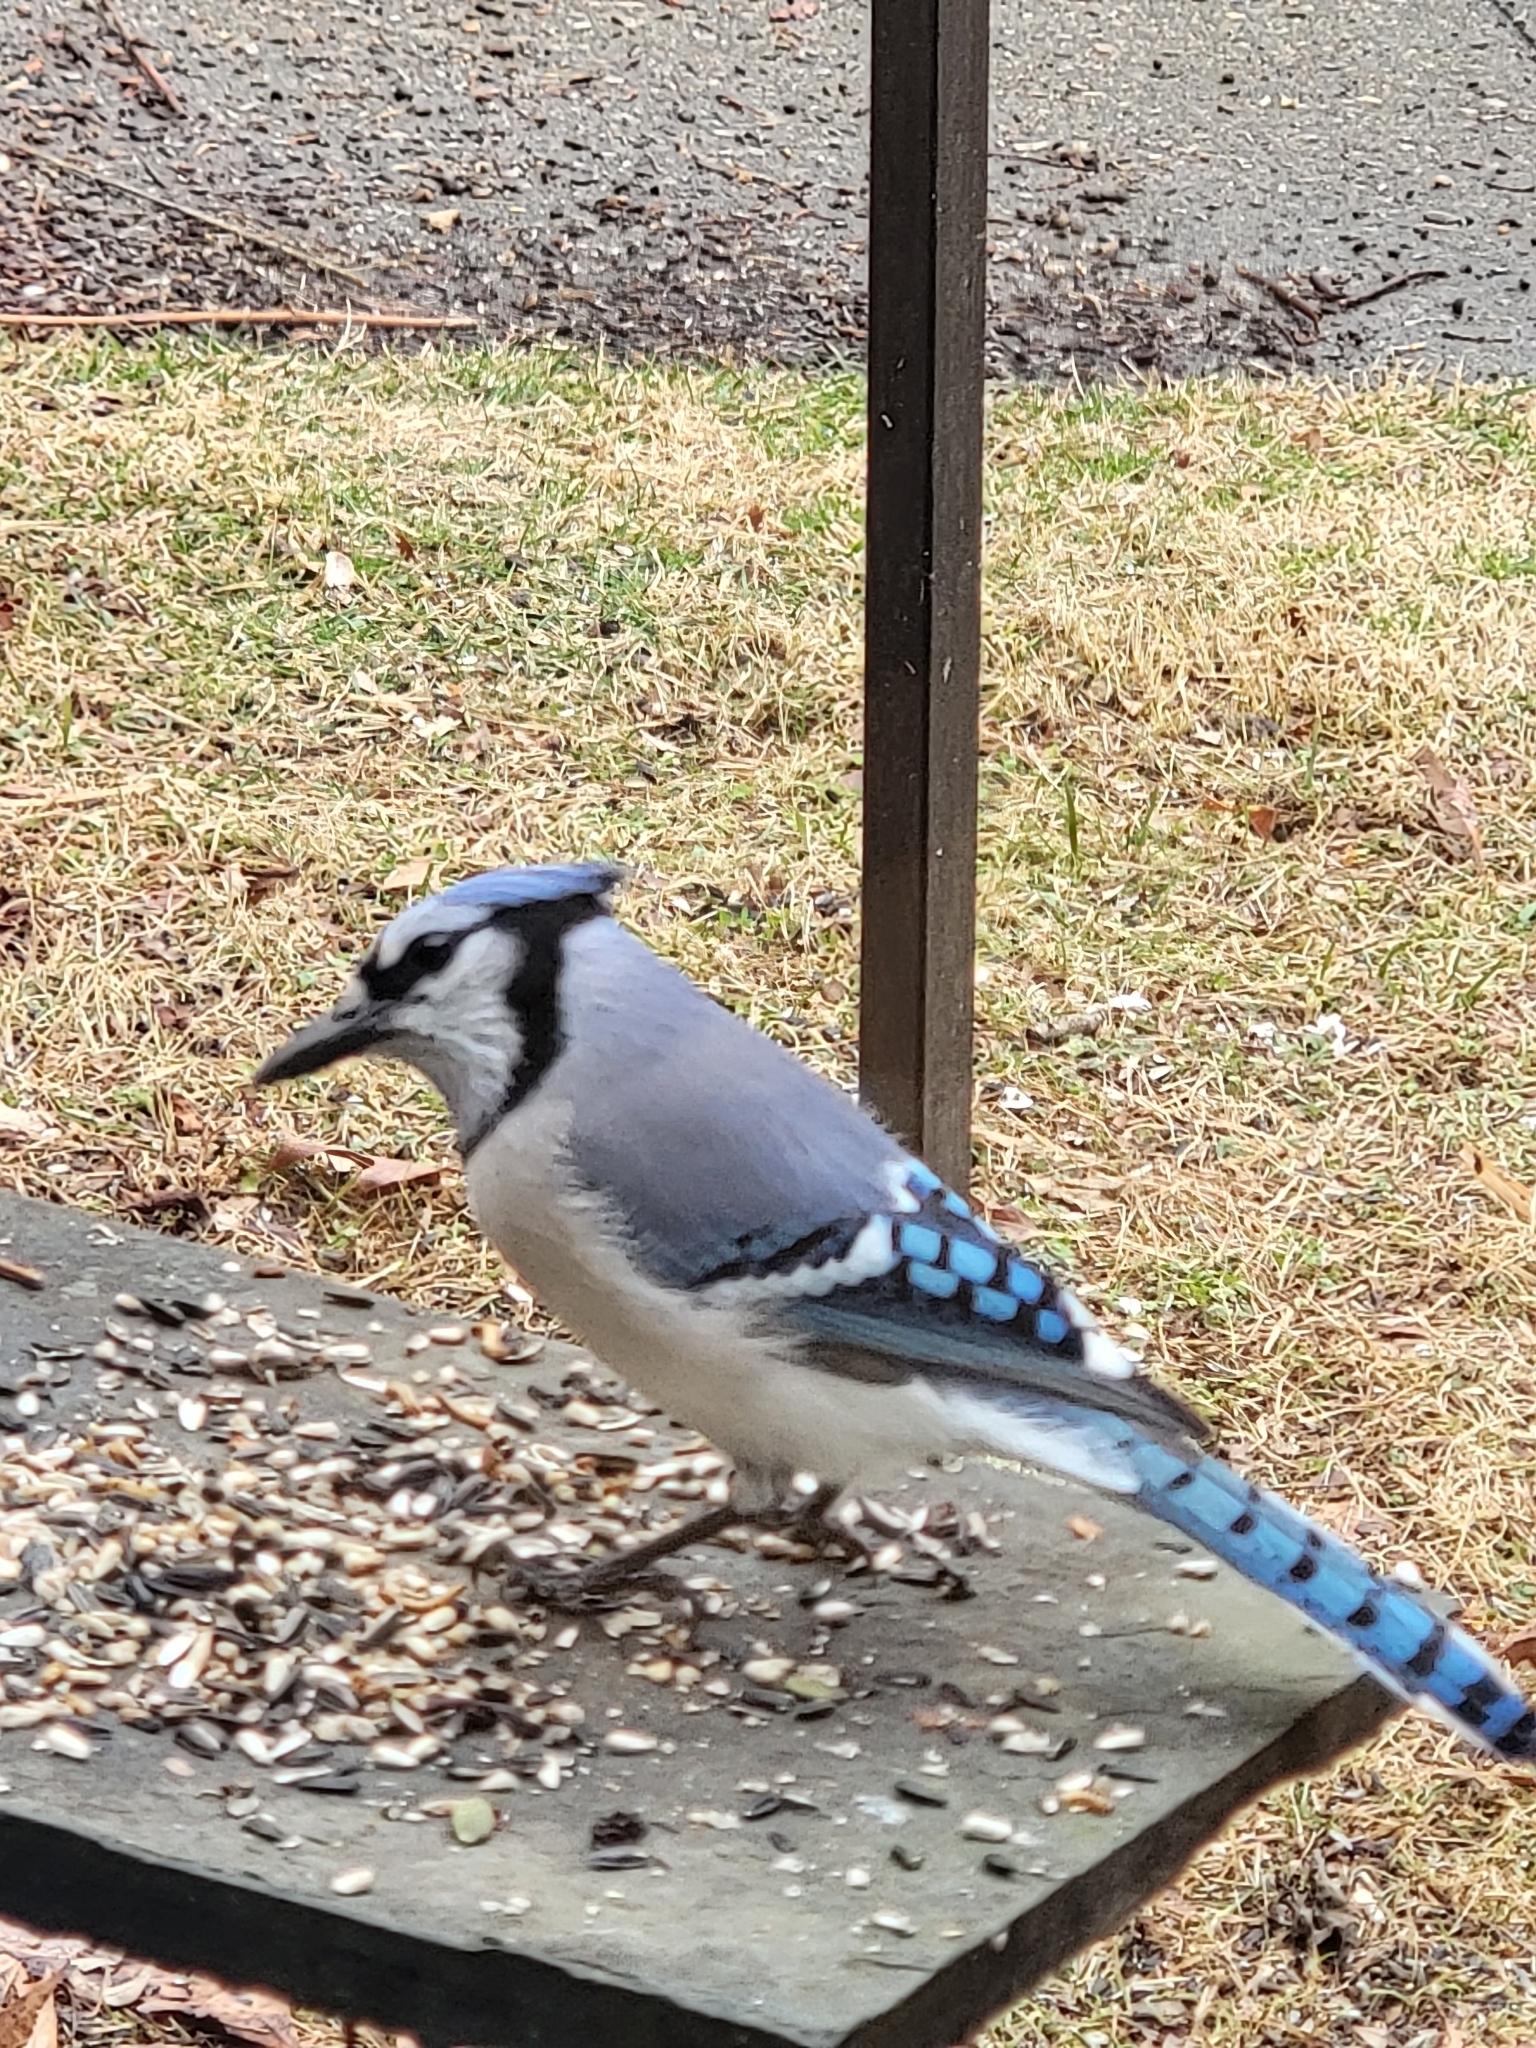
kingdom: Animalia
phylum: Chordata
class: Aves
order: Passeriformes
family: Corvidae
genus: Cyanocitta
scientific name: Cyanocitta cristata
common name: Blue jay
